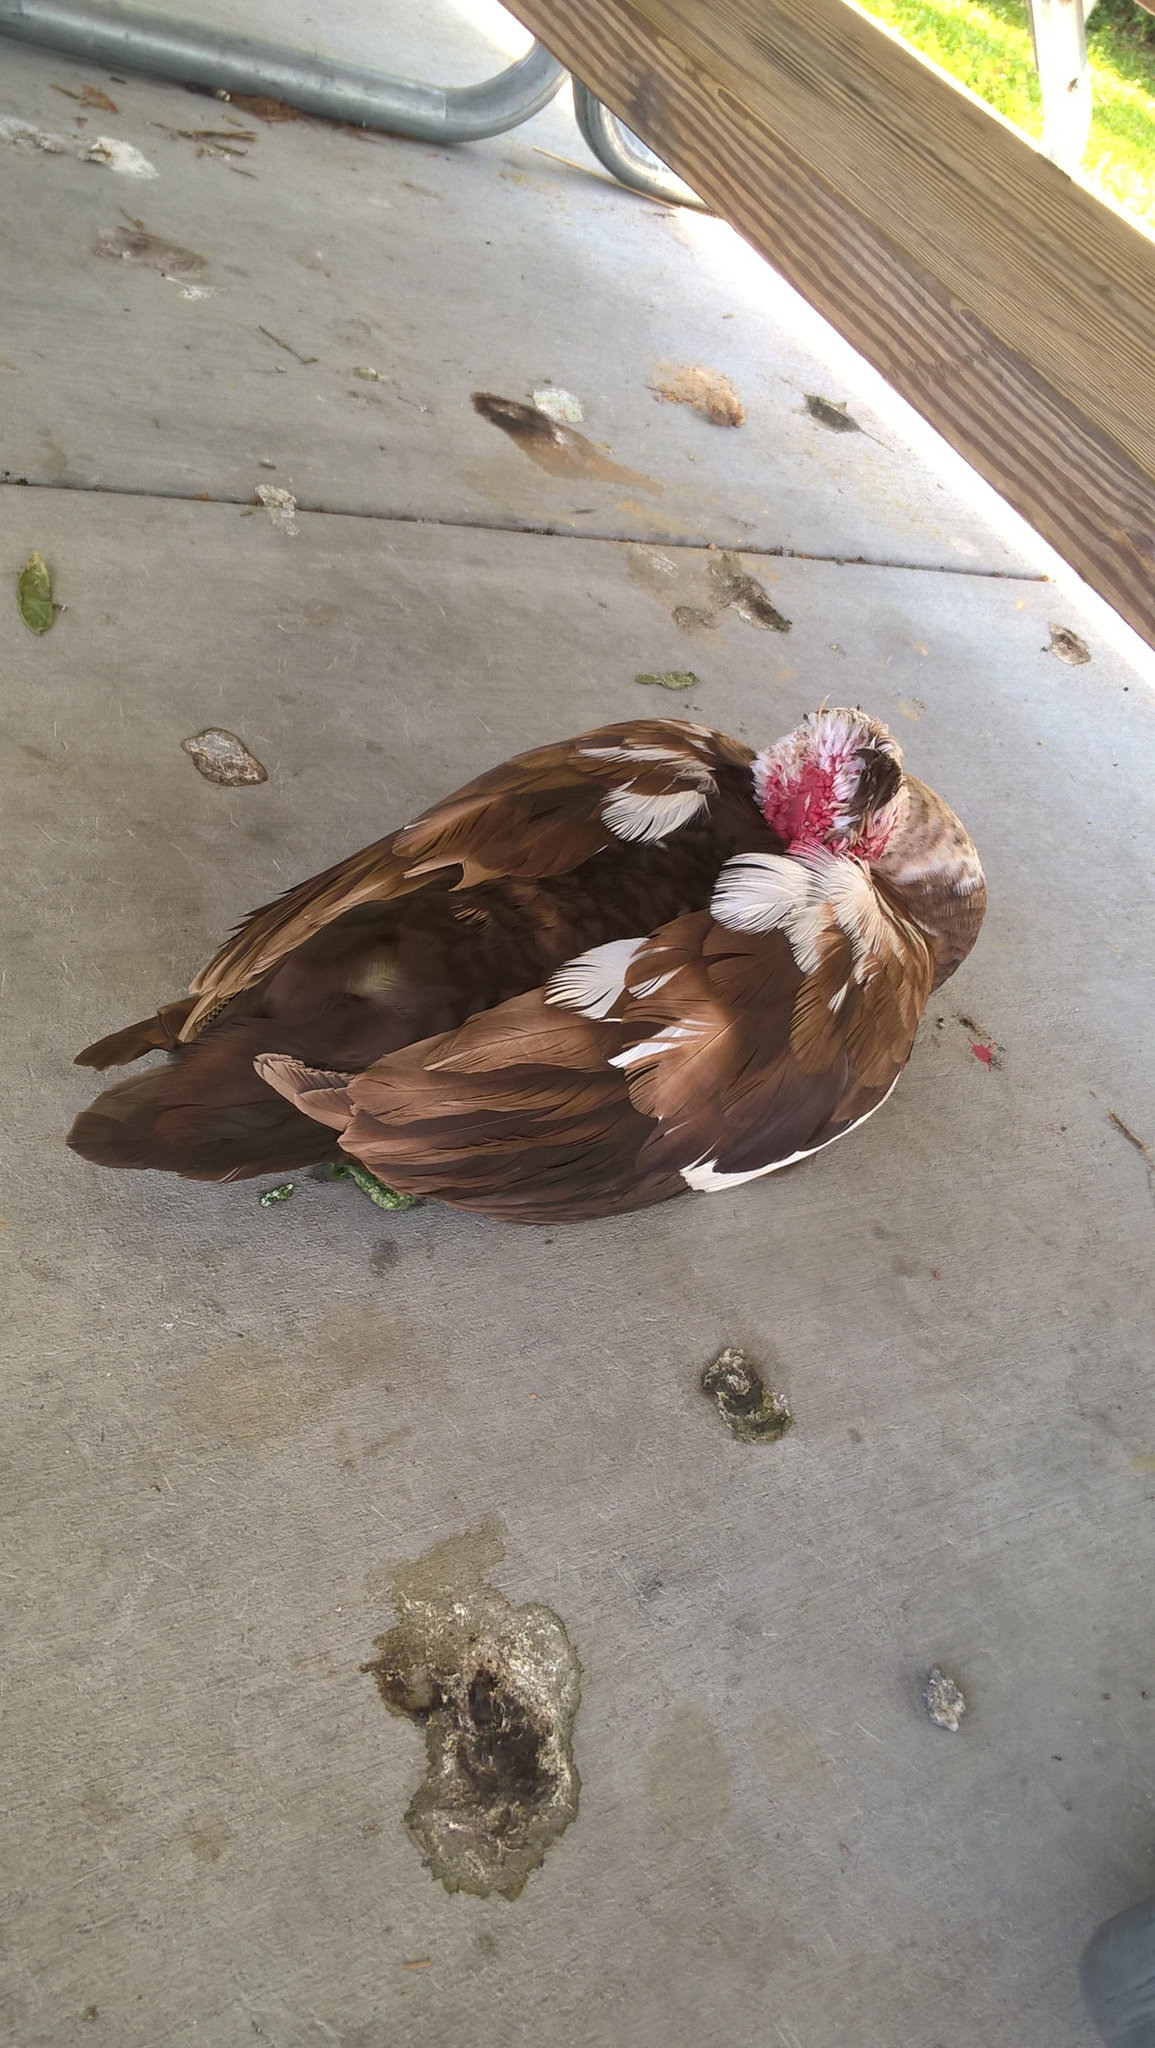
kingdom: Animalia
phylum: Chordata
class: Aves
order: Anseriformes
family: Anatidae
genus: Cairina
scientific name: Cairina moschata
